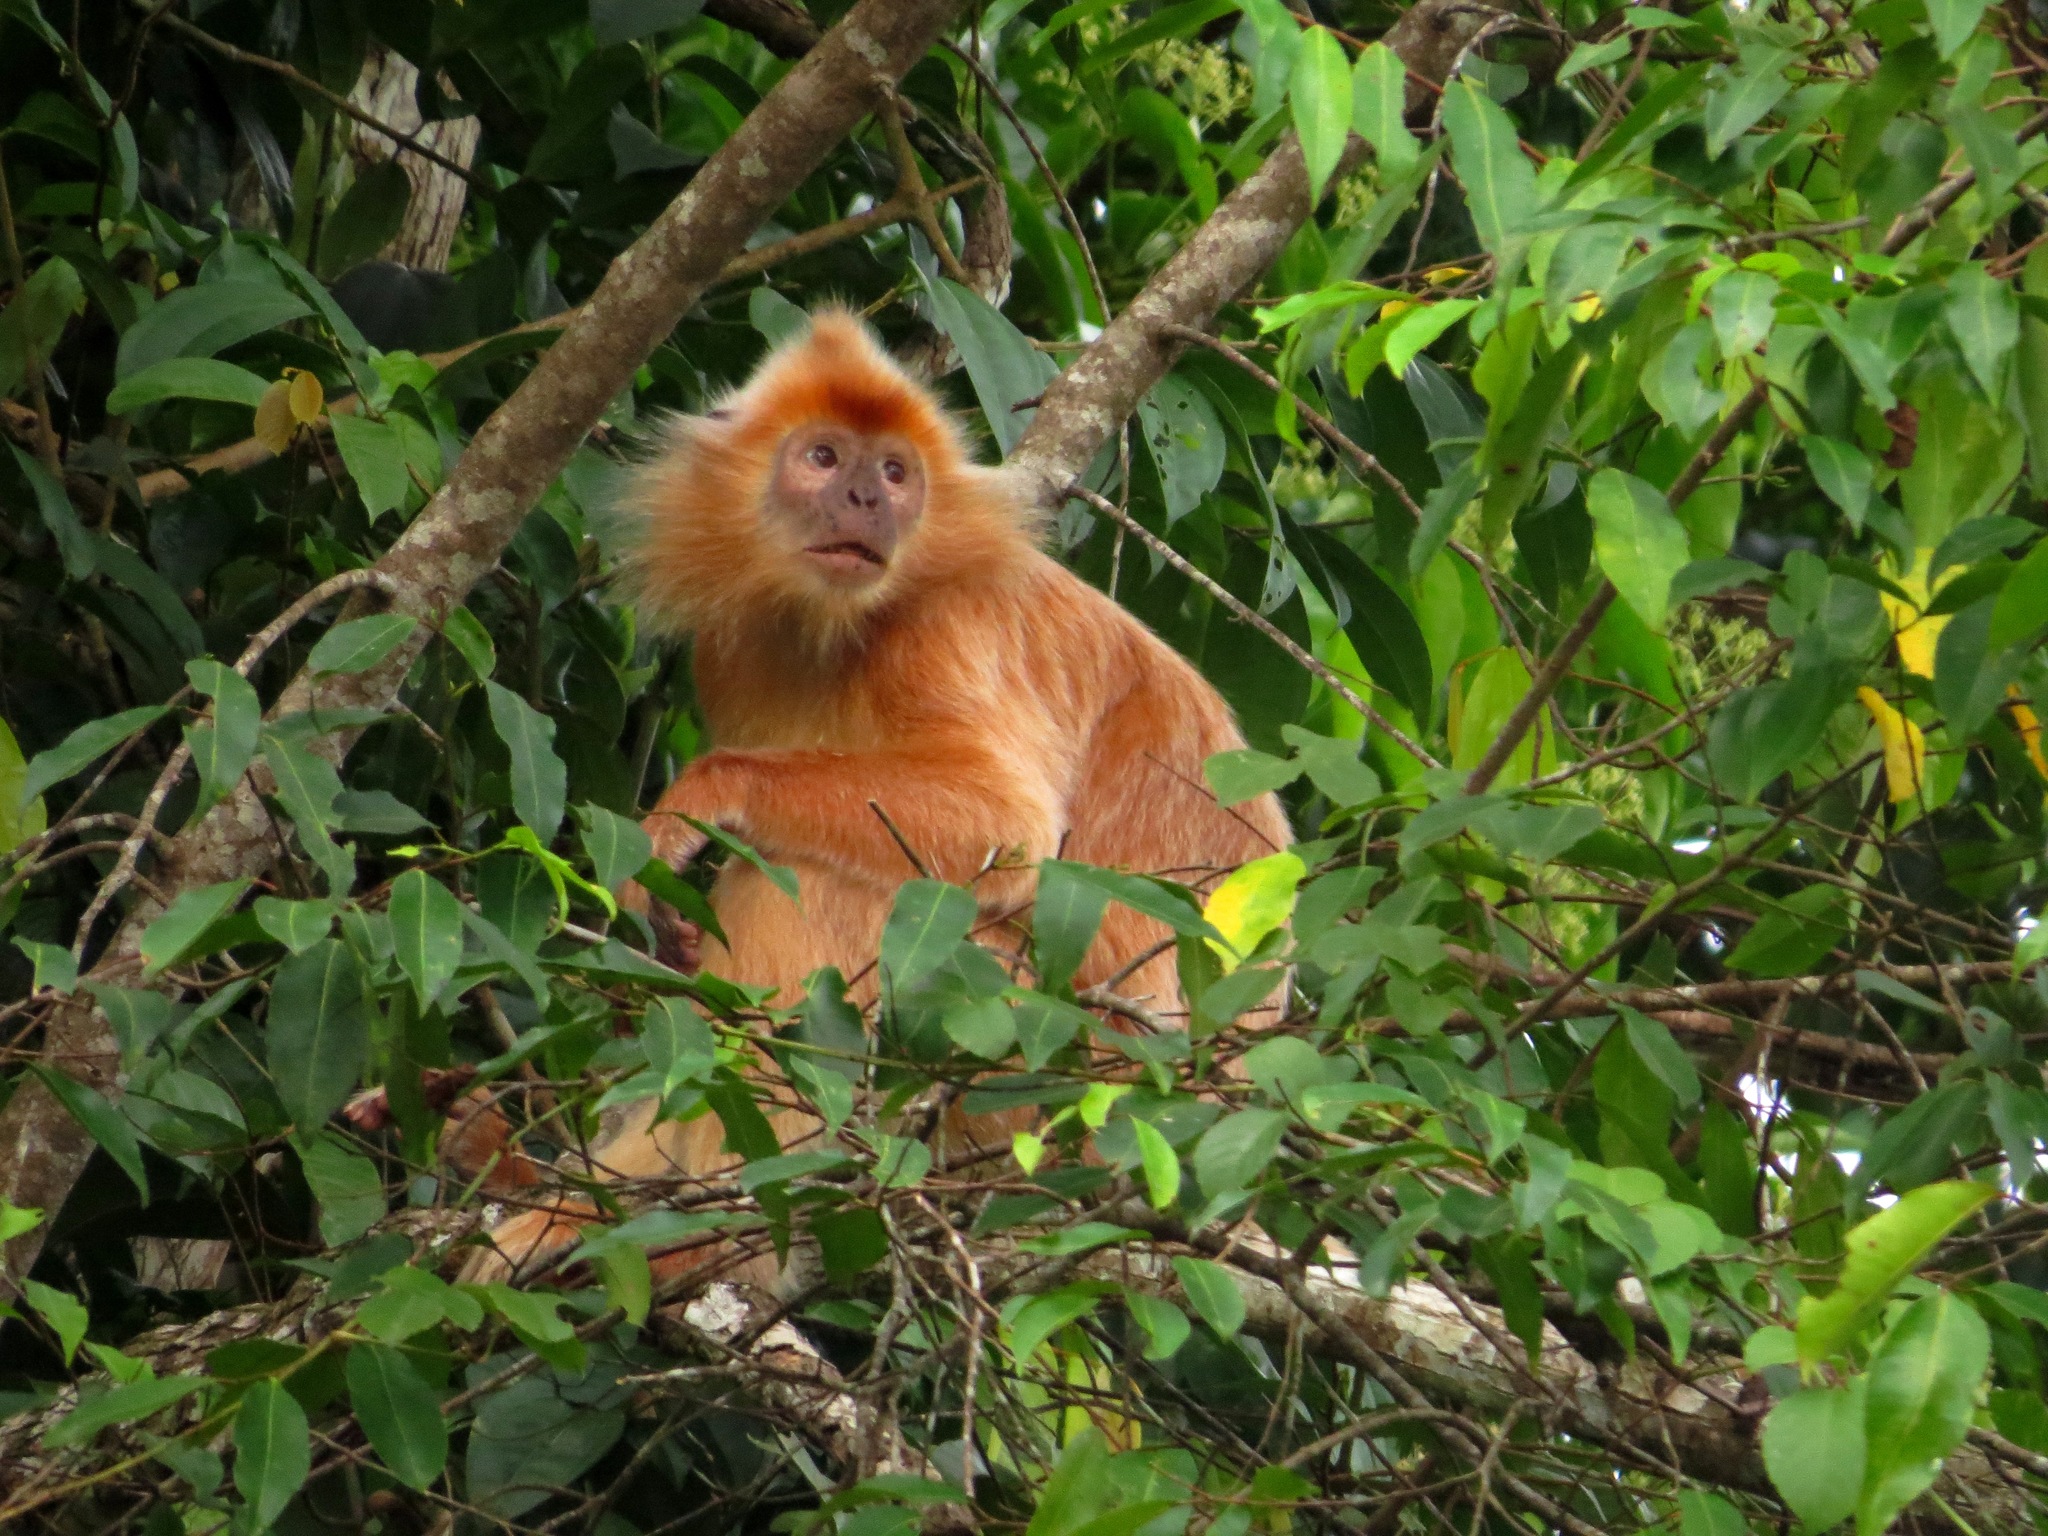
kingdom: Animalia
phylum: Chordata
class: Mammalia
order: Primates
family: Cercopithecidae
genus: Trachypithecus
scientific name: Trachypithecus cristatus
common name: Silvery lutung
